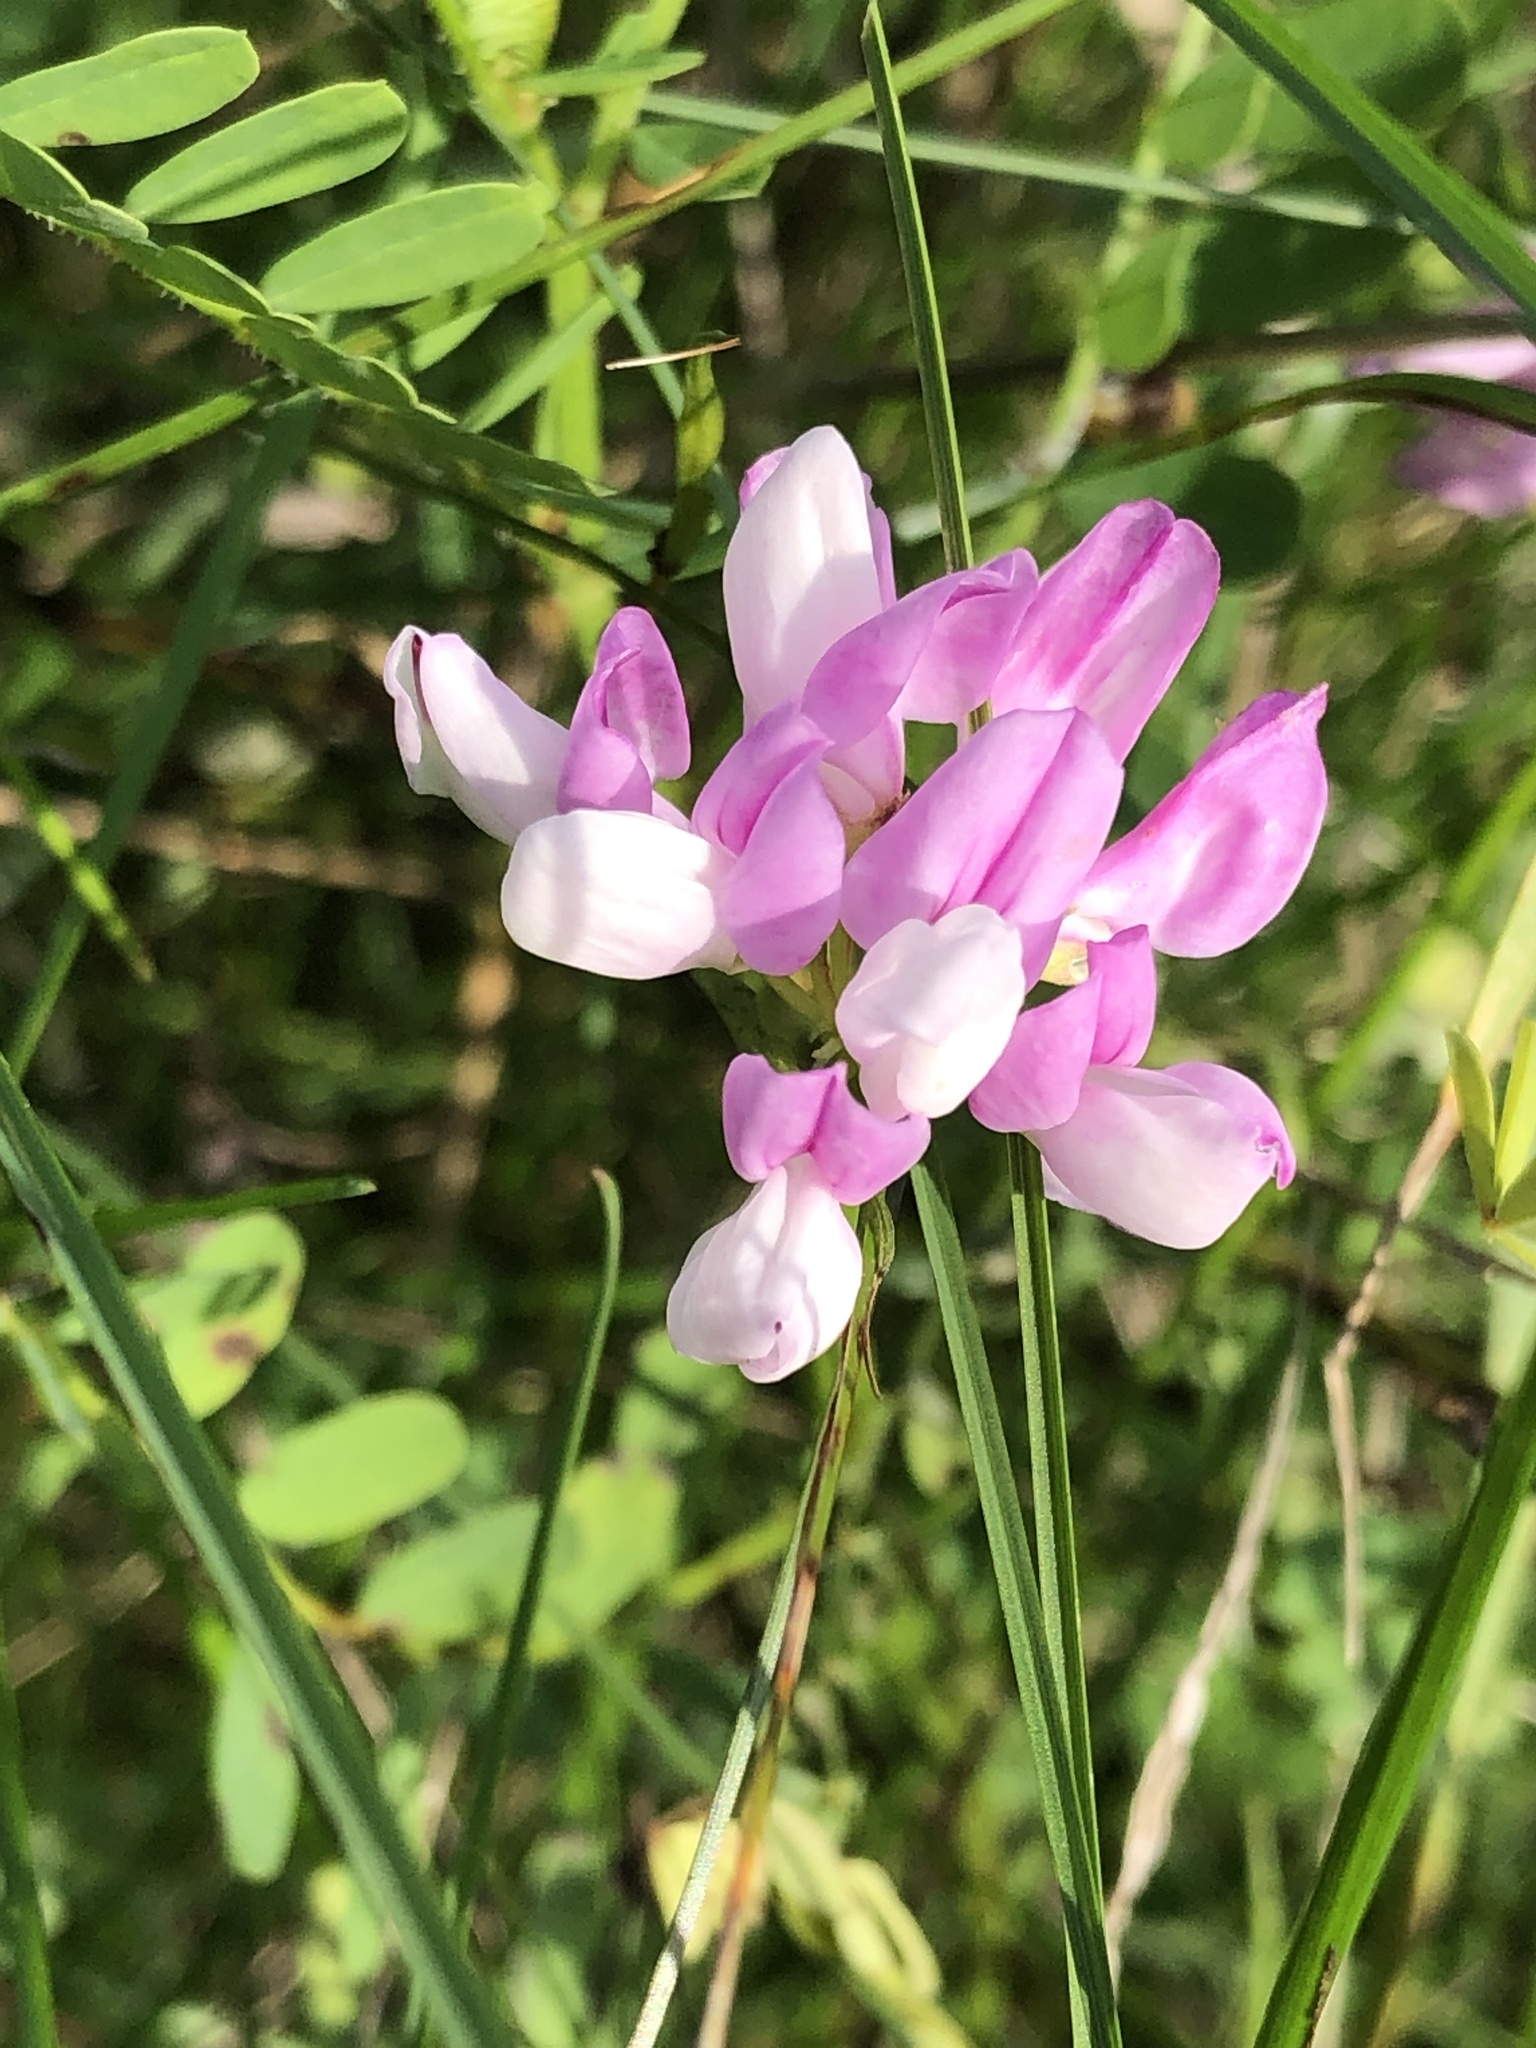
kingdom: Plantae
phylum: Tracheophyta
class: Magnoliopsida
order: Fabales
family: Fabaceae
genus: Coronilla
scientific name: Coronilla varia
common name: Crownvetch
